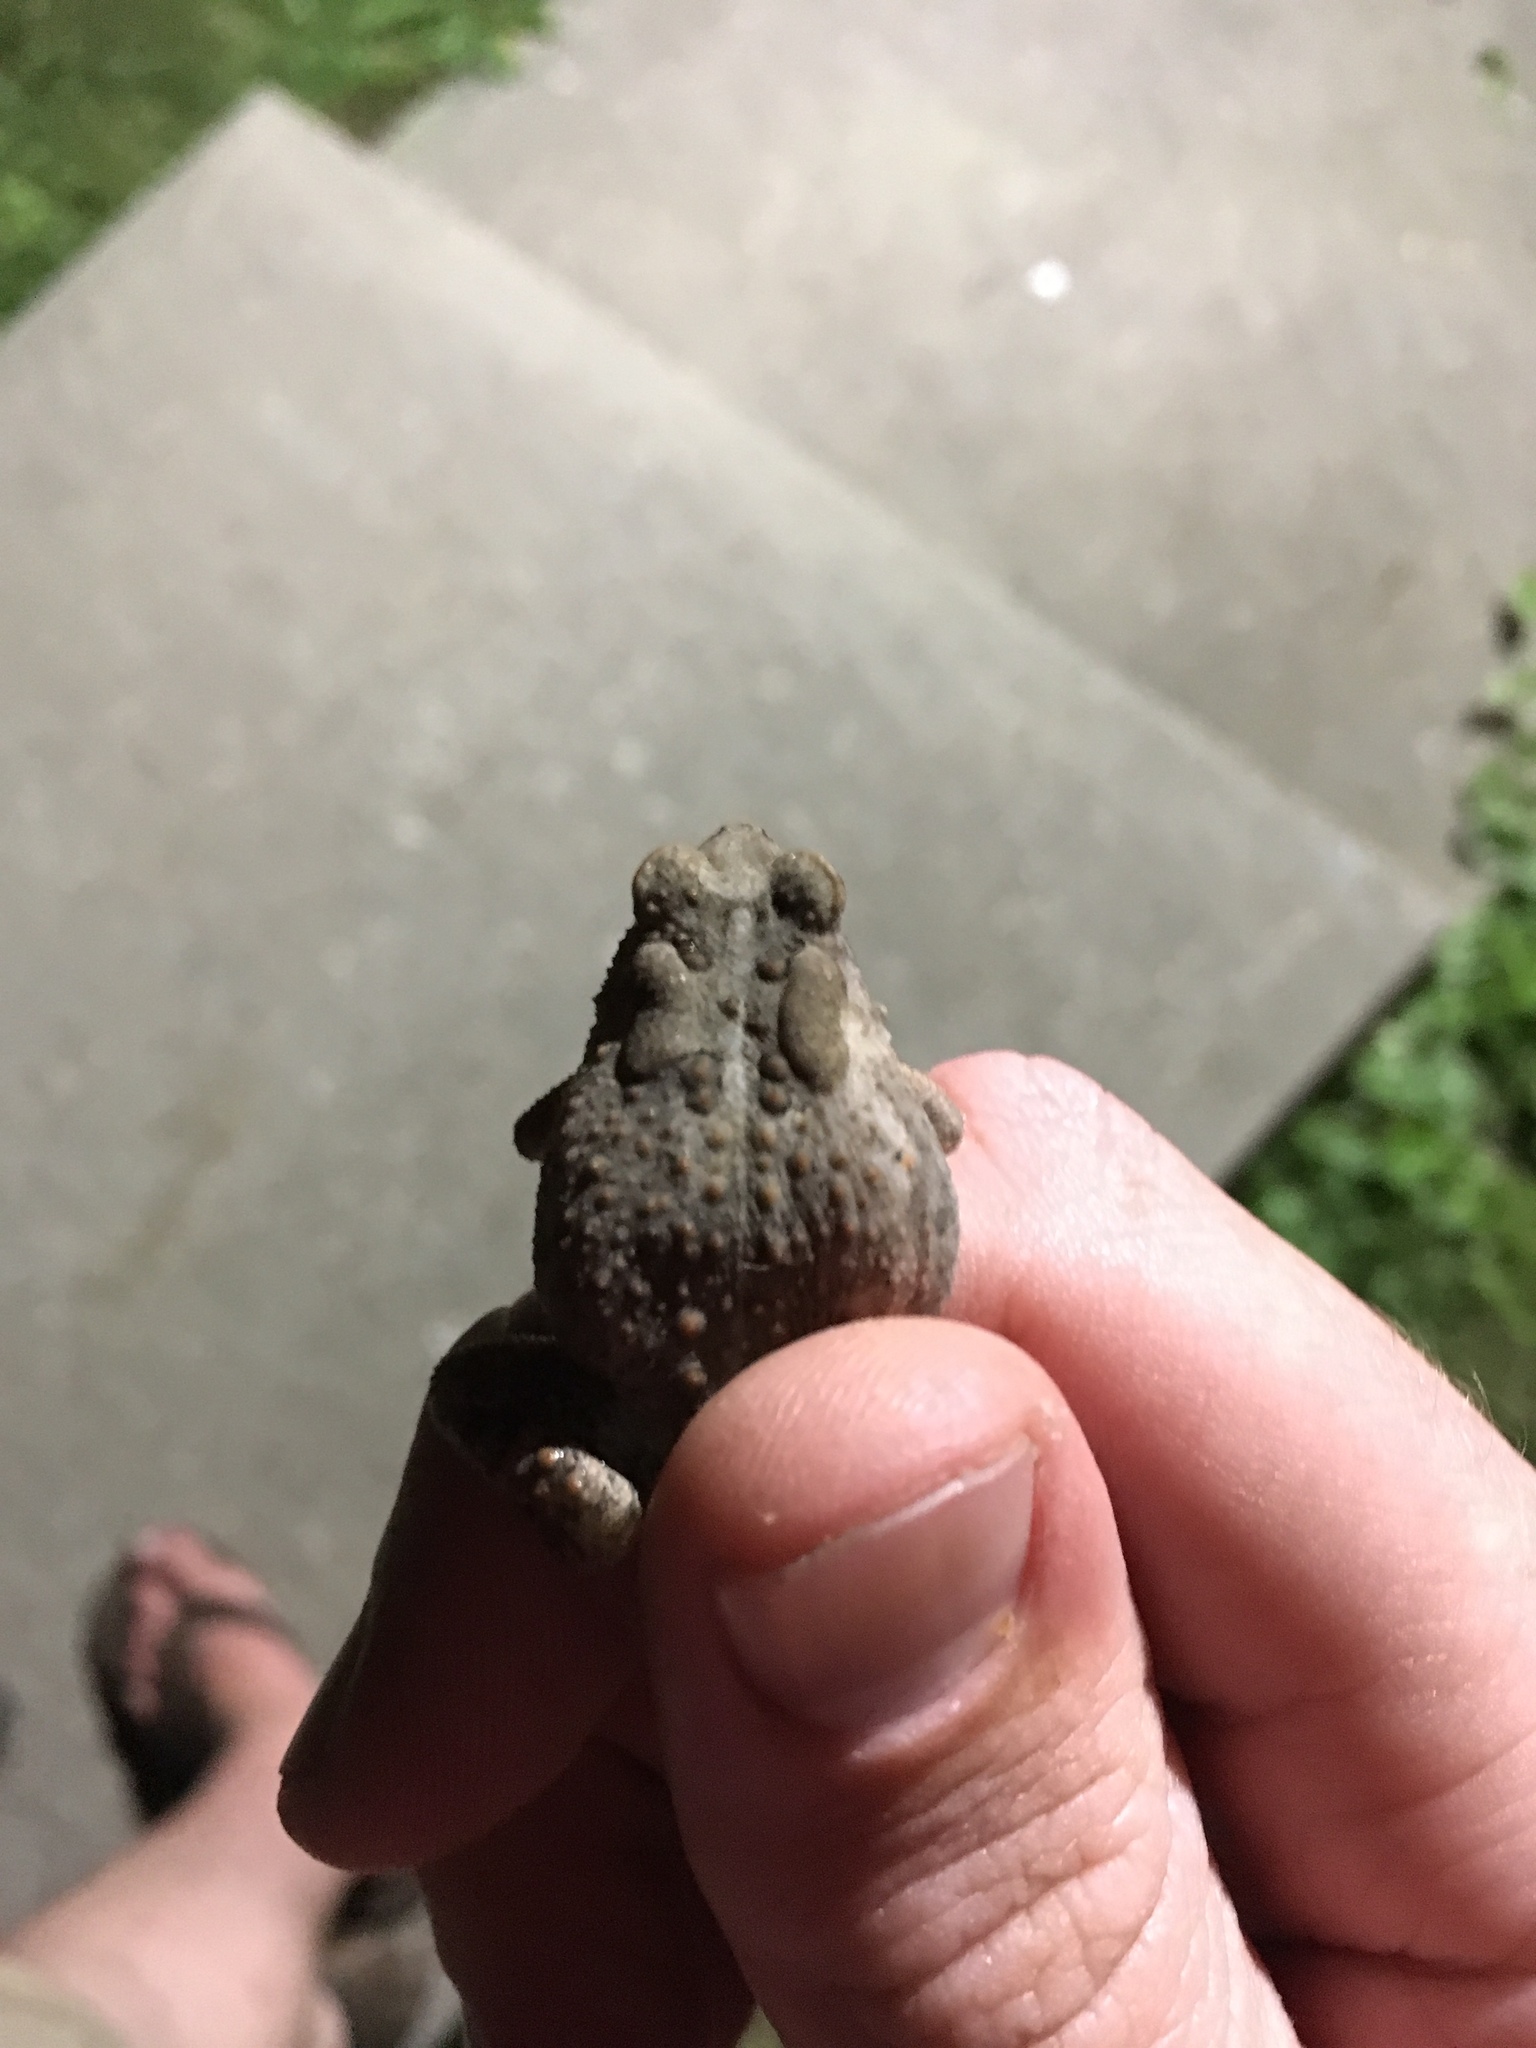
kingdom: Animalia
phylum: Chordata
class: Amphibia
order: Anura
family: Bufonidae
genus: Anaxyrus
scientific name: Anaxyrus americanus
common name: American toad
